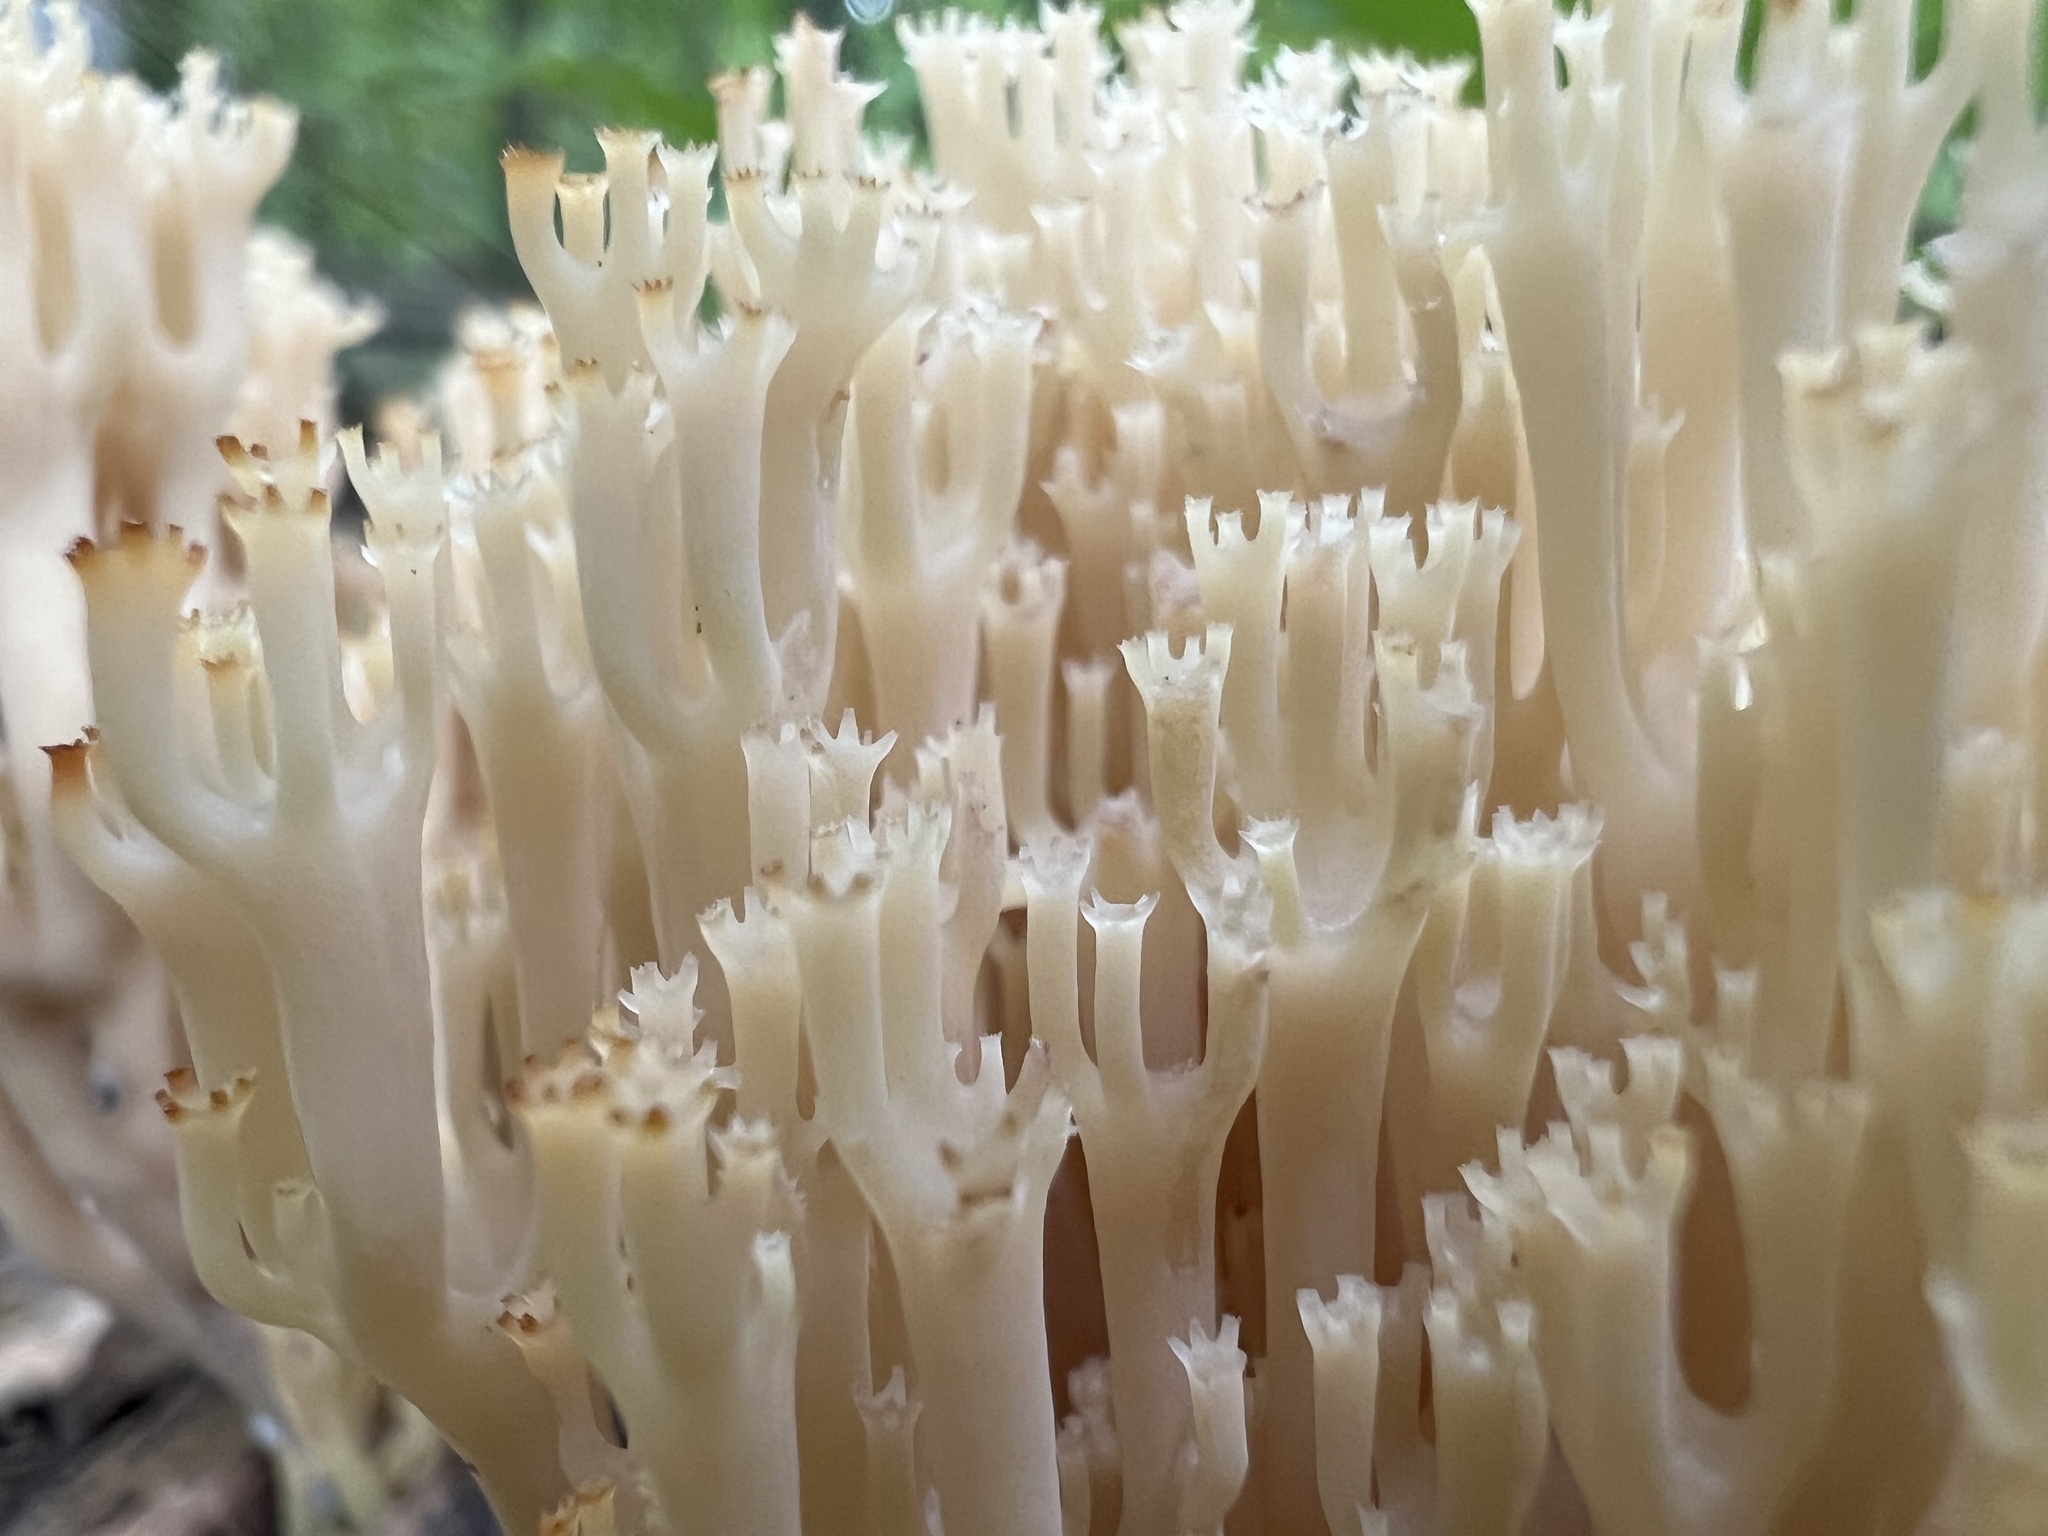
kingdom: Fungi
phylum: Basidiomycota
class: Agaricomycetes
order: Russulales
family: Auriscalpiaceae
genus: Artomyces
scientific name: Artomyces pyxidatus
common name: Crown-tipped coral fungus
